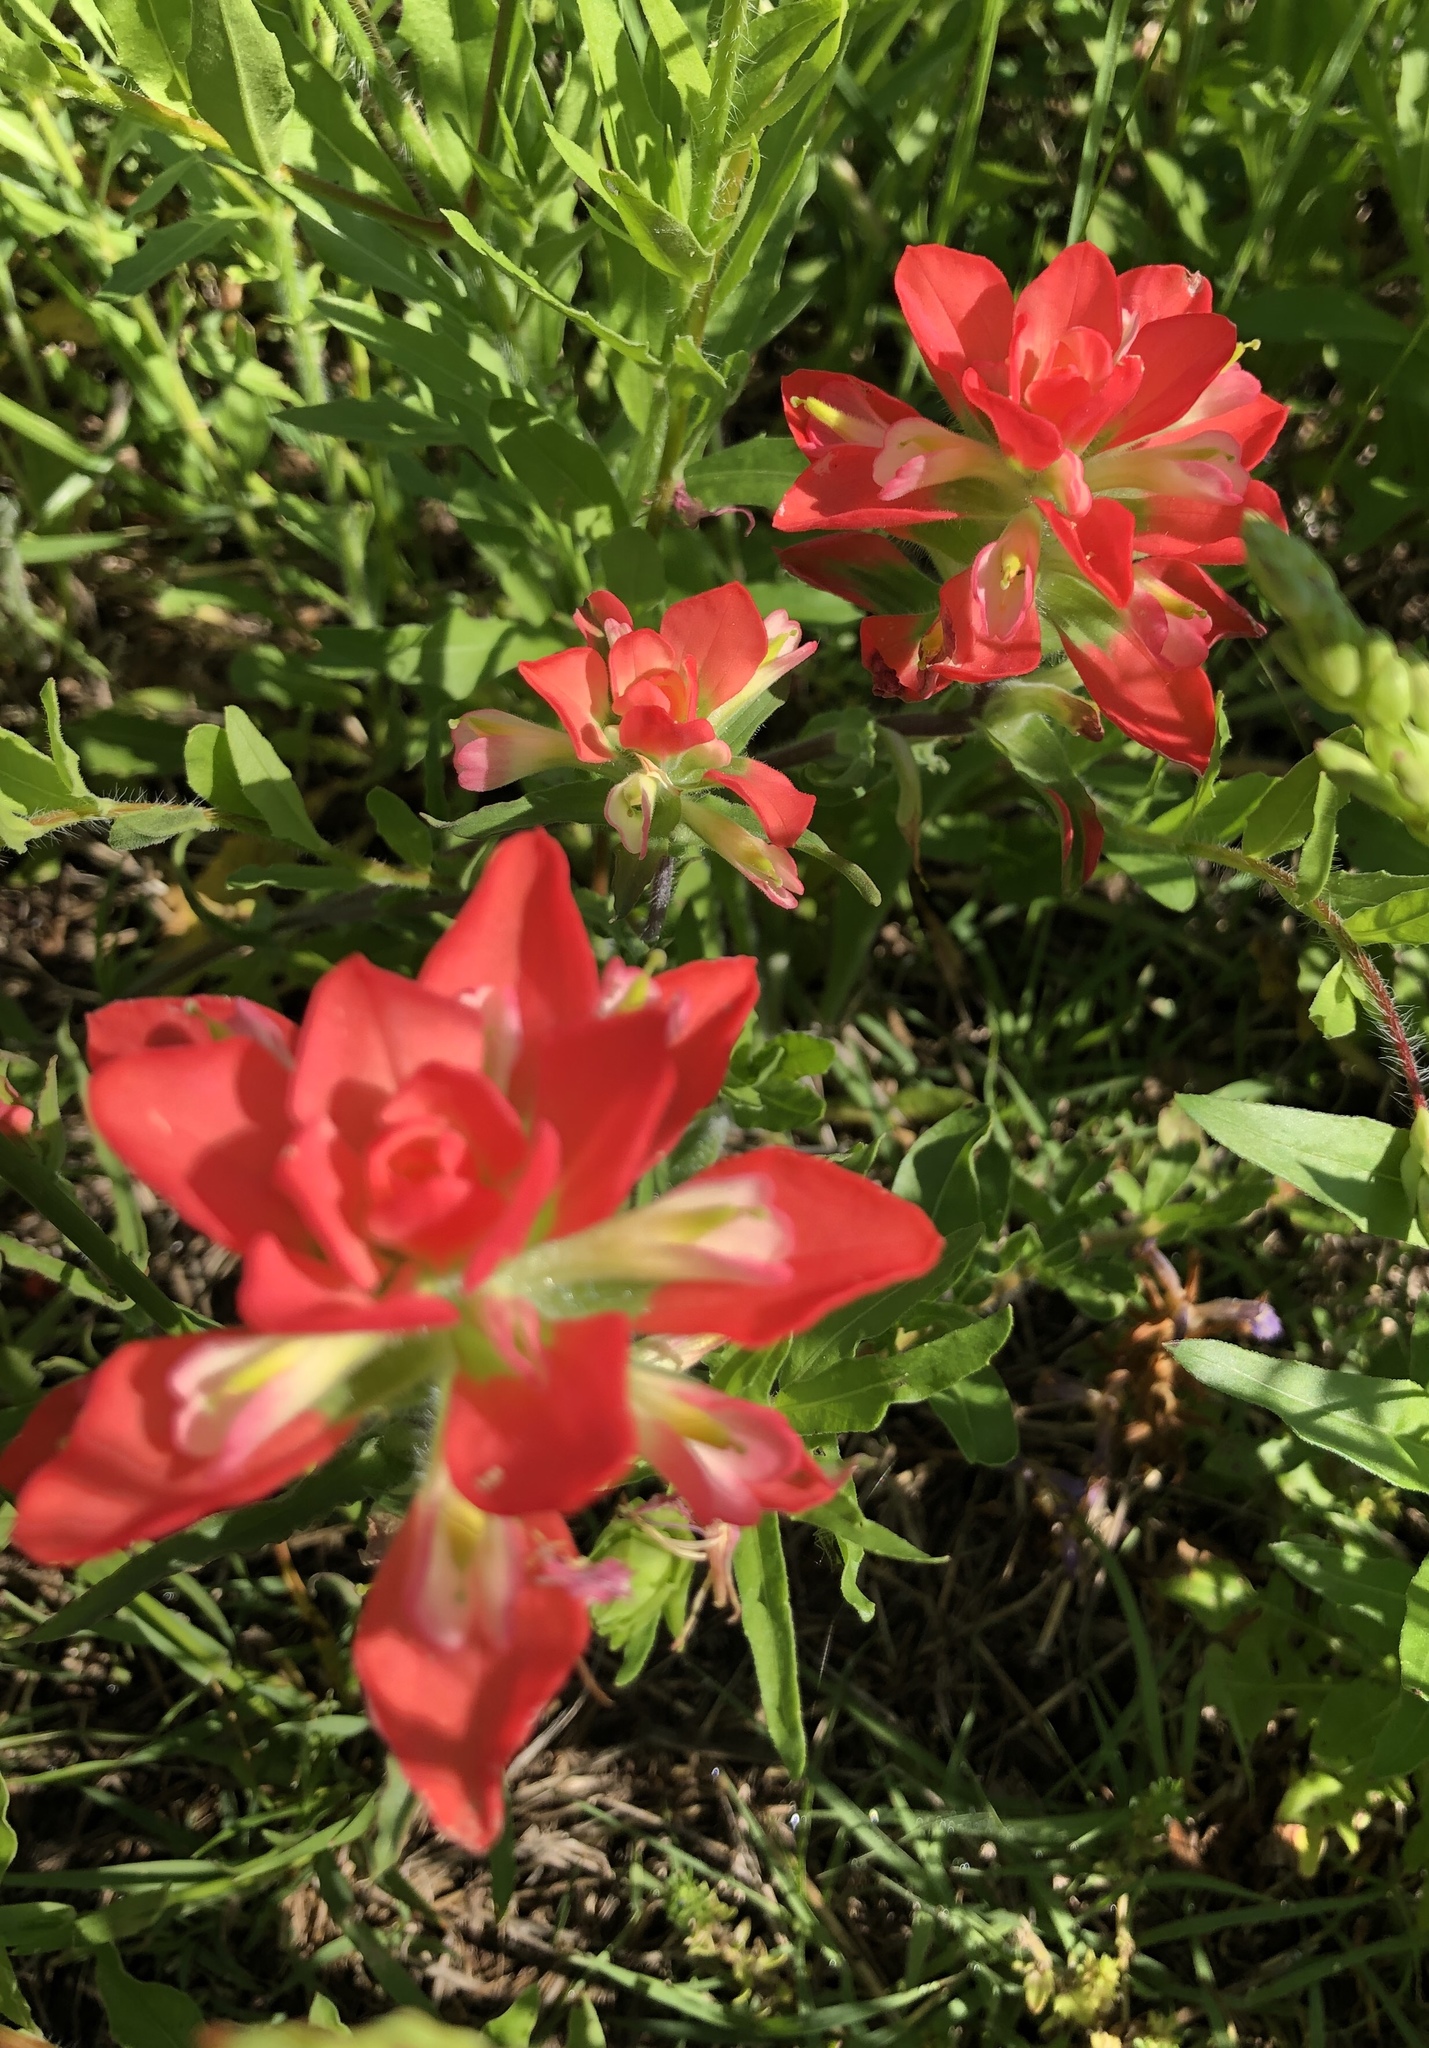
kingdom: Plantae
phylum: Tracheophyta
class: Magnoliopsida
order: Lamiales
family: Orobanchaceae
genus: Castilleja
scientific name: Castilleja indivisa
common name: Texas paintbrush
